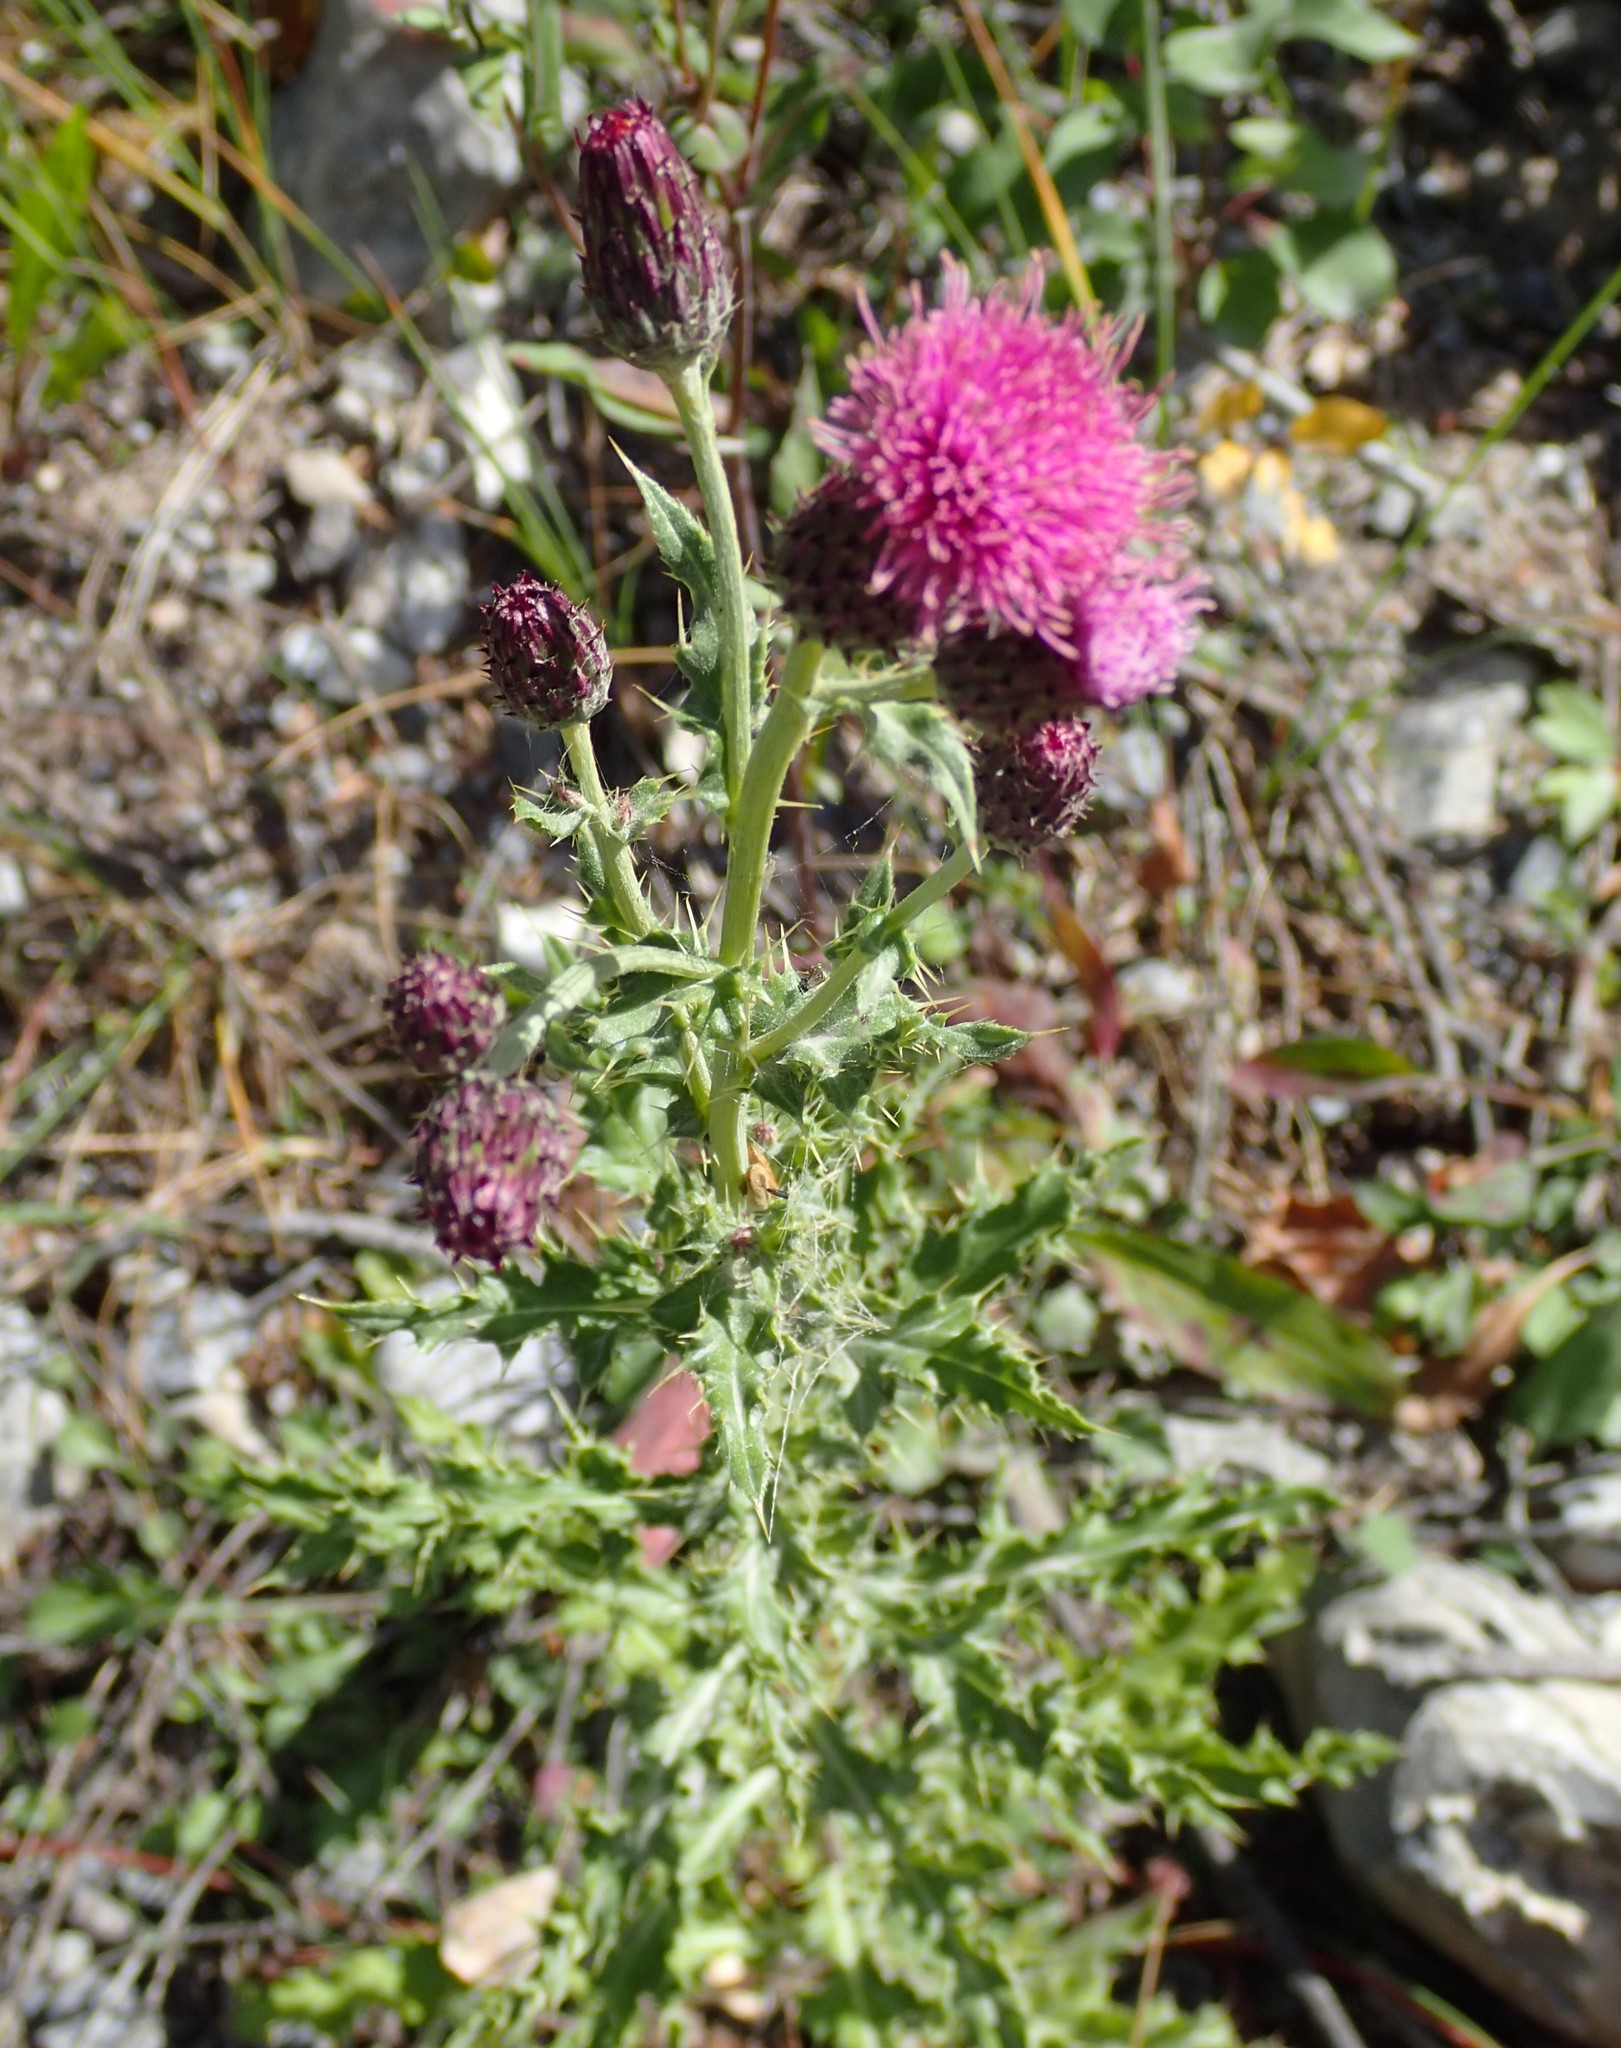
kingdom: Plantae
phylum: Tracheophyta
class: Magnoliopsida
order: Asterales
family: Asteraceae
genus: Cirsium
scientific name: Cirsium arvense
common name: Creeping thistle
